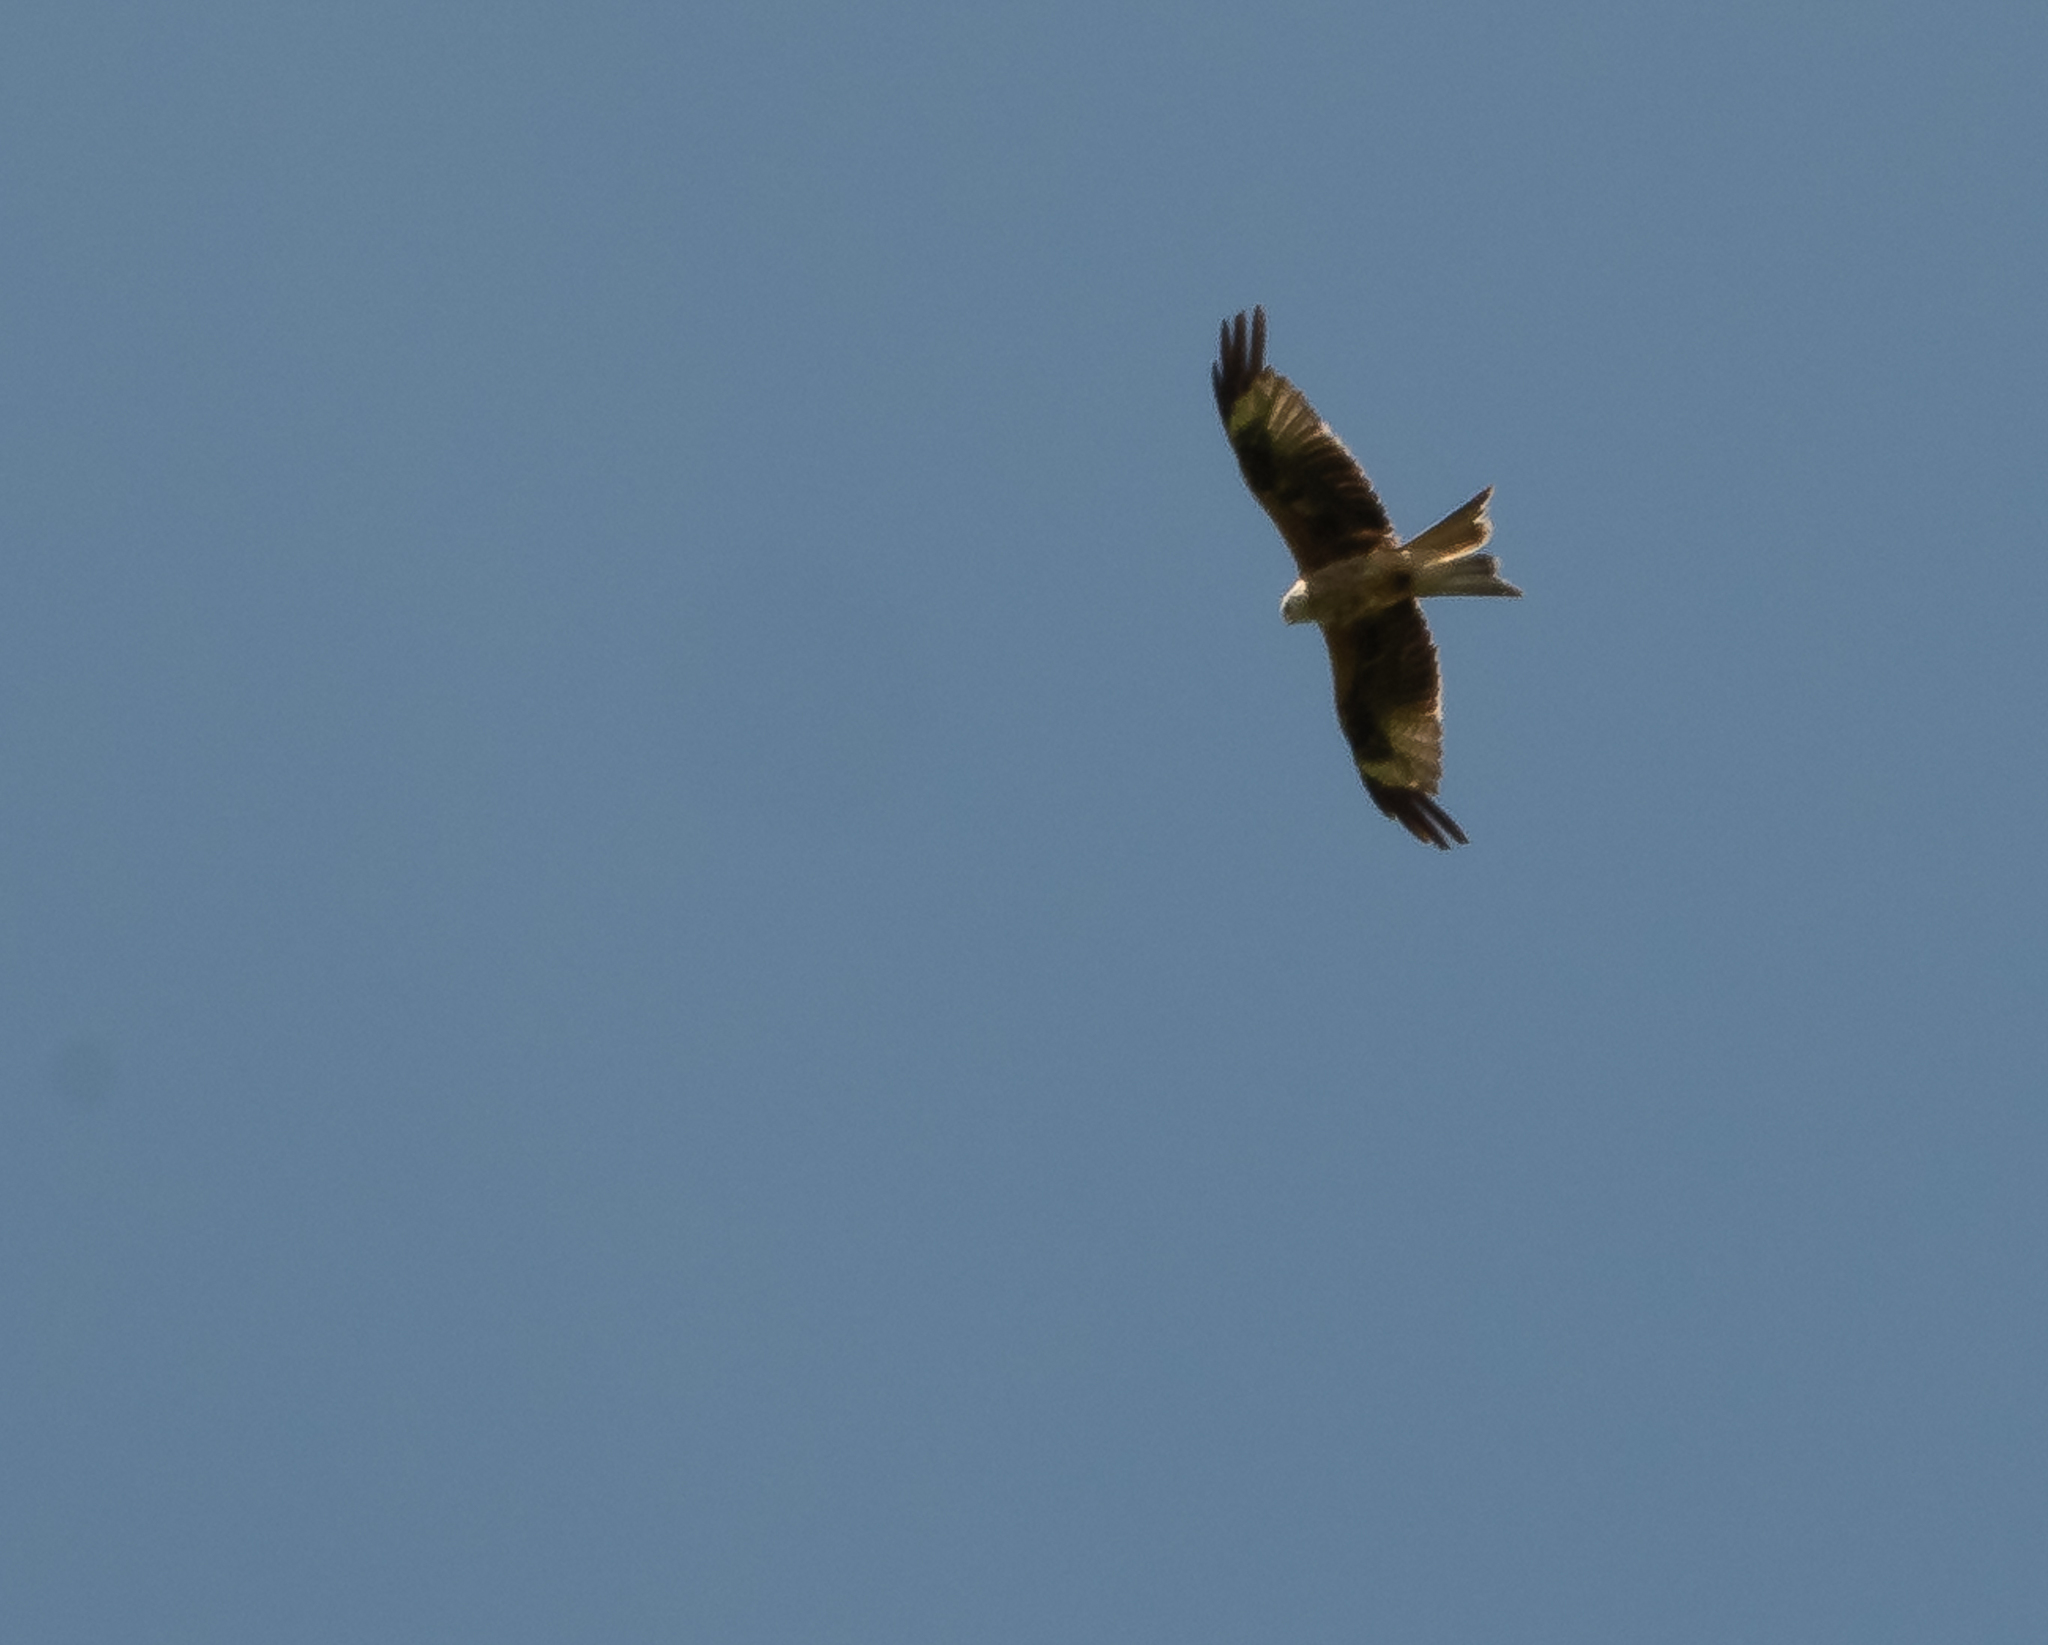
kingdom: Animalia
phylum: Chordata
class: Aves
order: Accipitriformes
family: Accipitridae
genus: Milvus
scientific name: Milvus milvus
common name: Red kite
